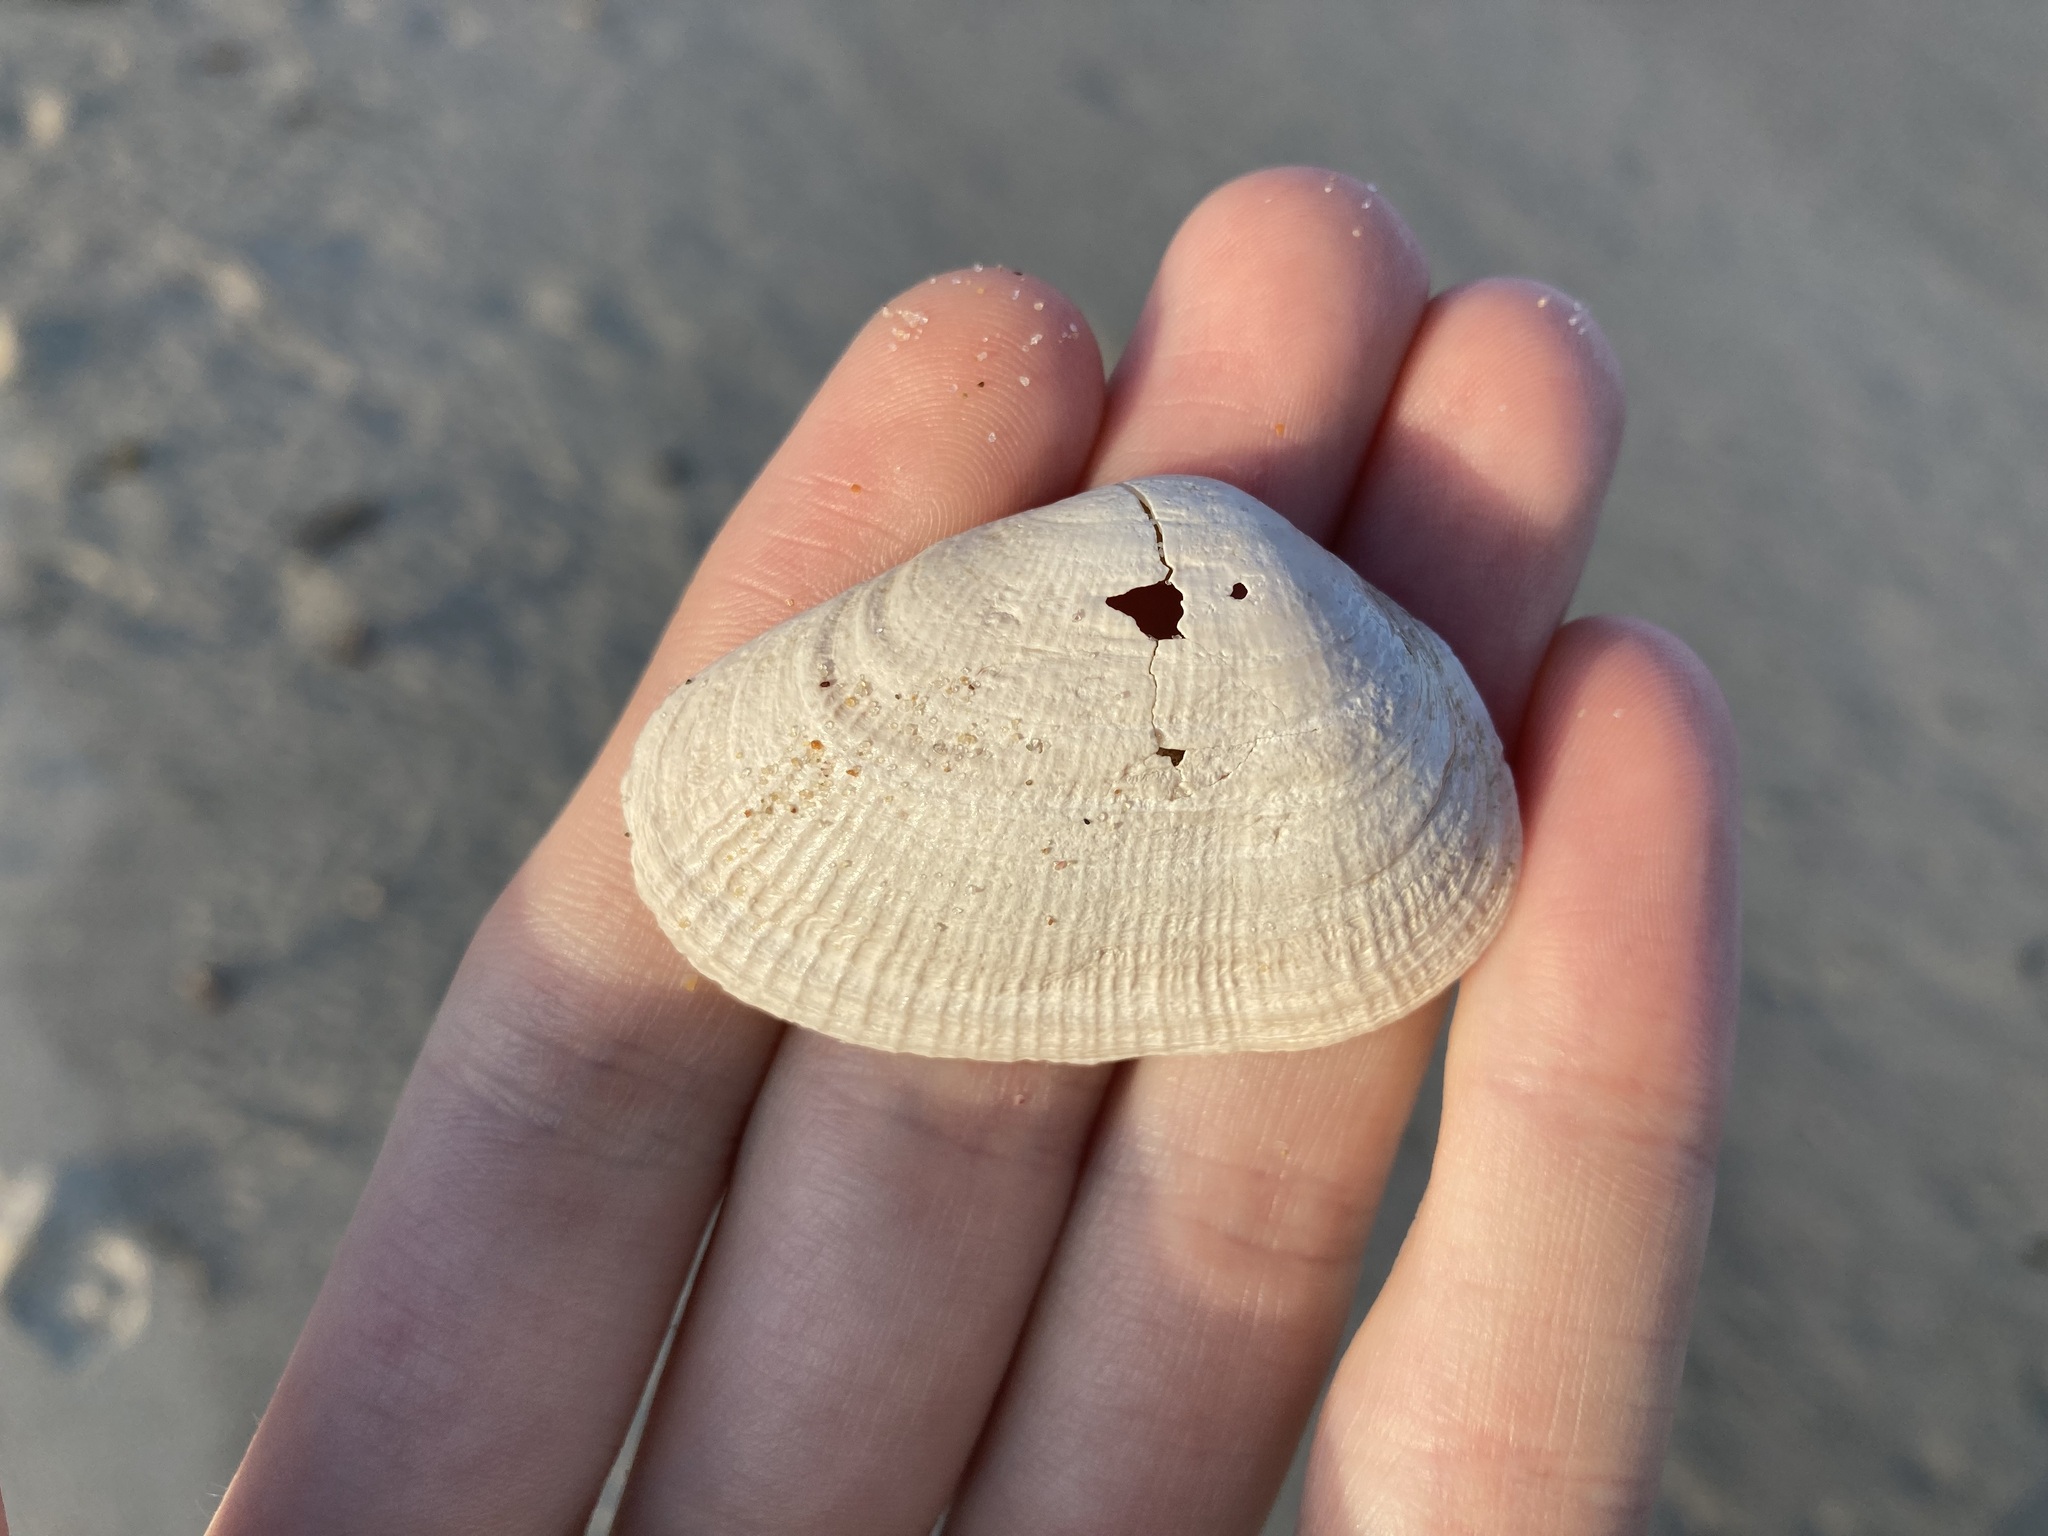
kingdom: Animalia
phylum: Mollusca
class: Bivalvia
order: Venerida
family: Mactridae
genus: Meropesta
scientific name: Meropesta nicobarica
